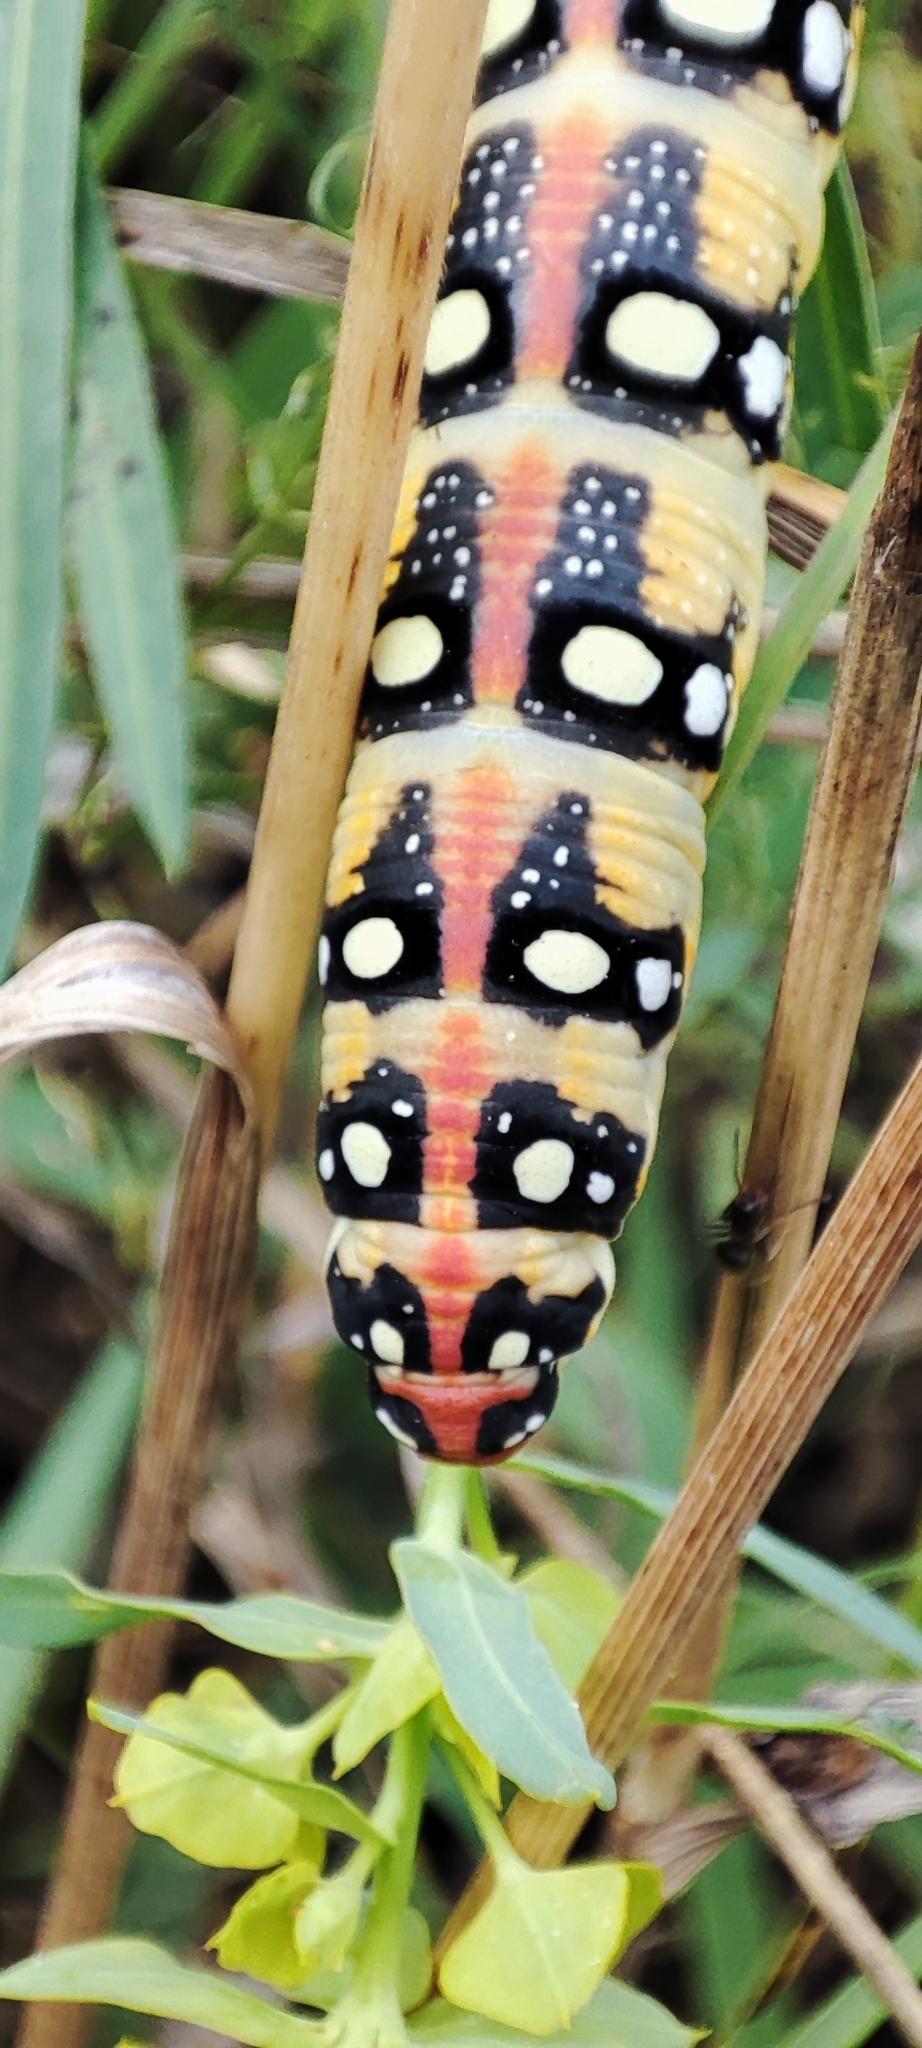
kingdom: Animalia
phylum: Arthropoda
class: Insecta
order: Lepidoptera
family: Sphingidae
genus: Hyles
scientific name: Hyles euphorbiae
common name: Spurge hawk-moth
